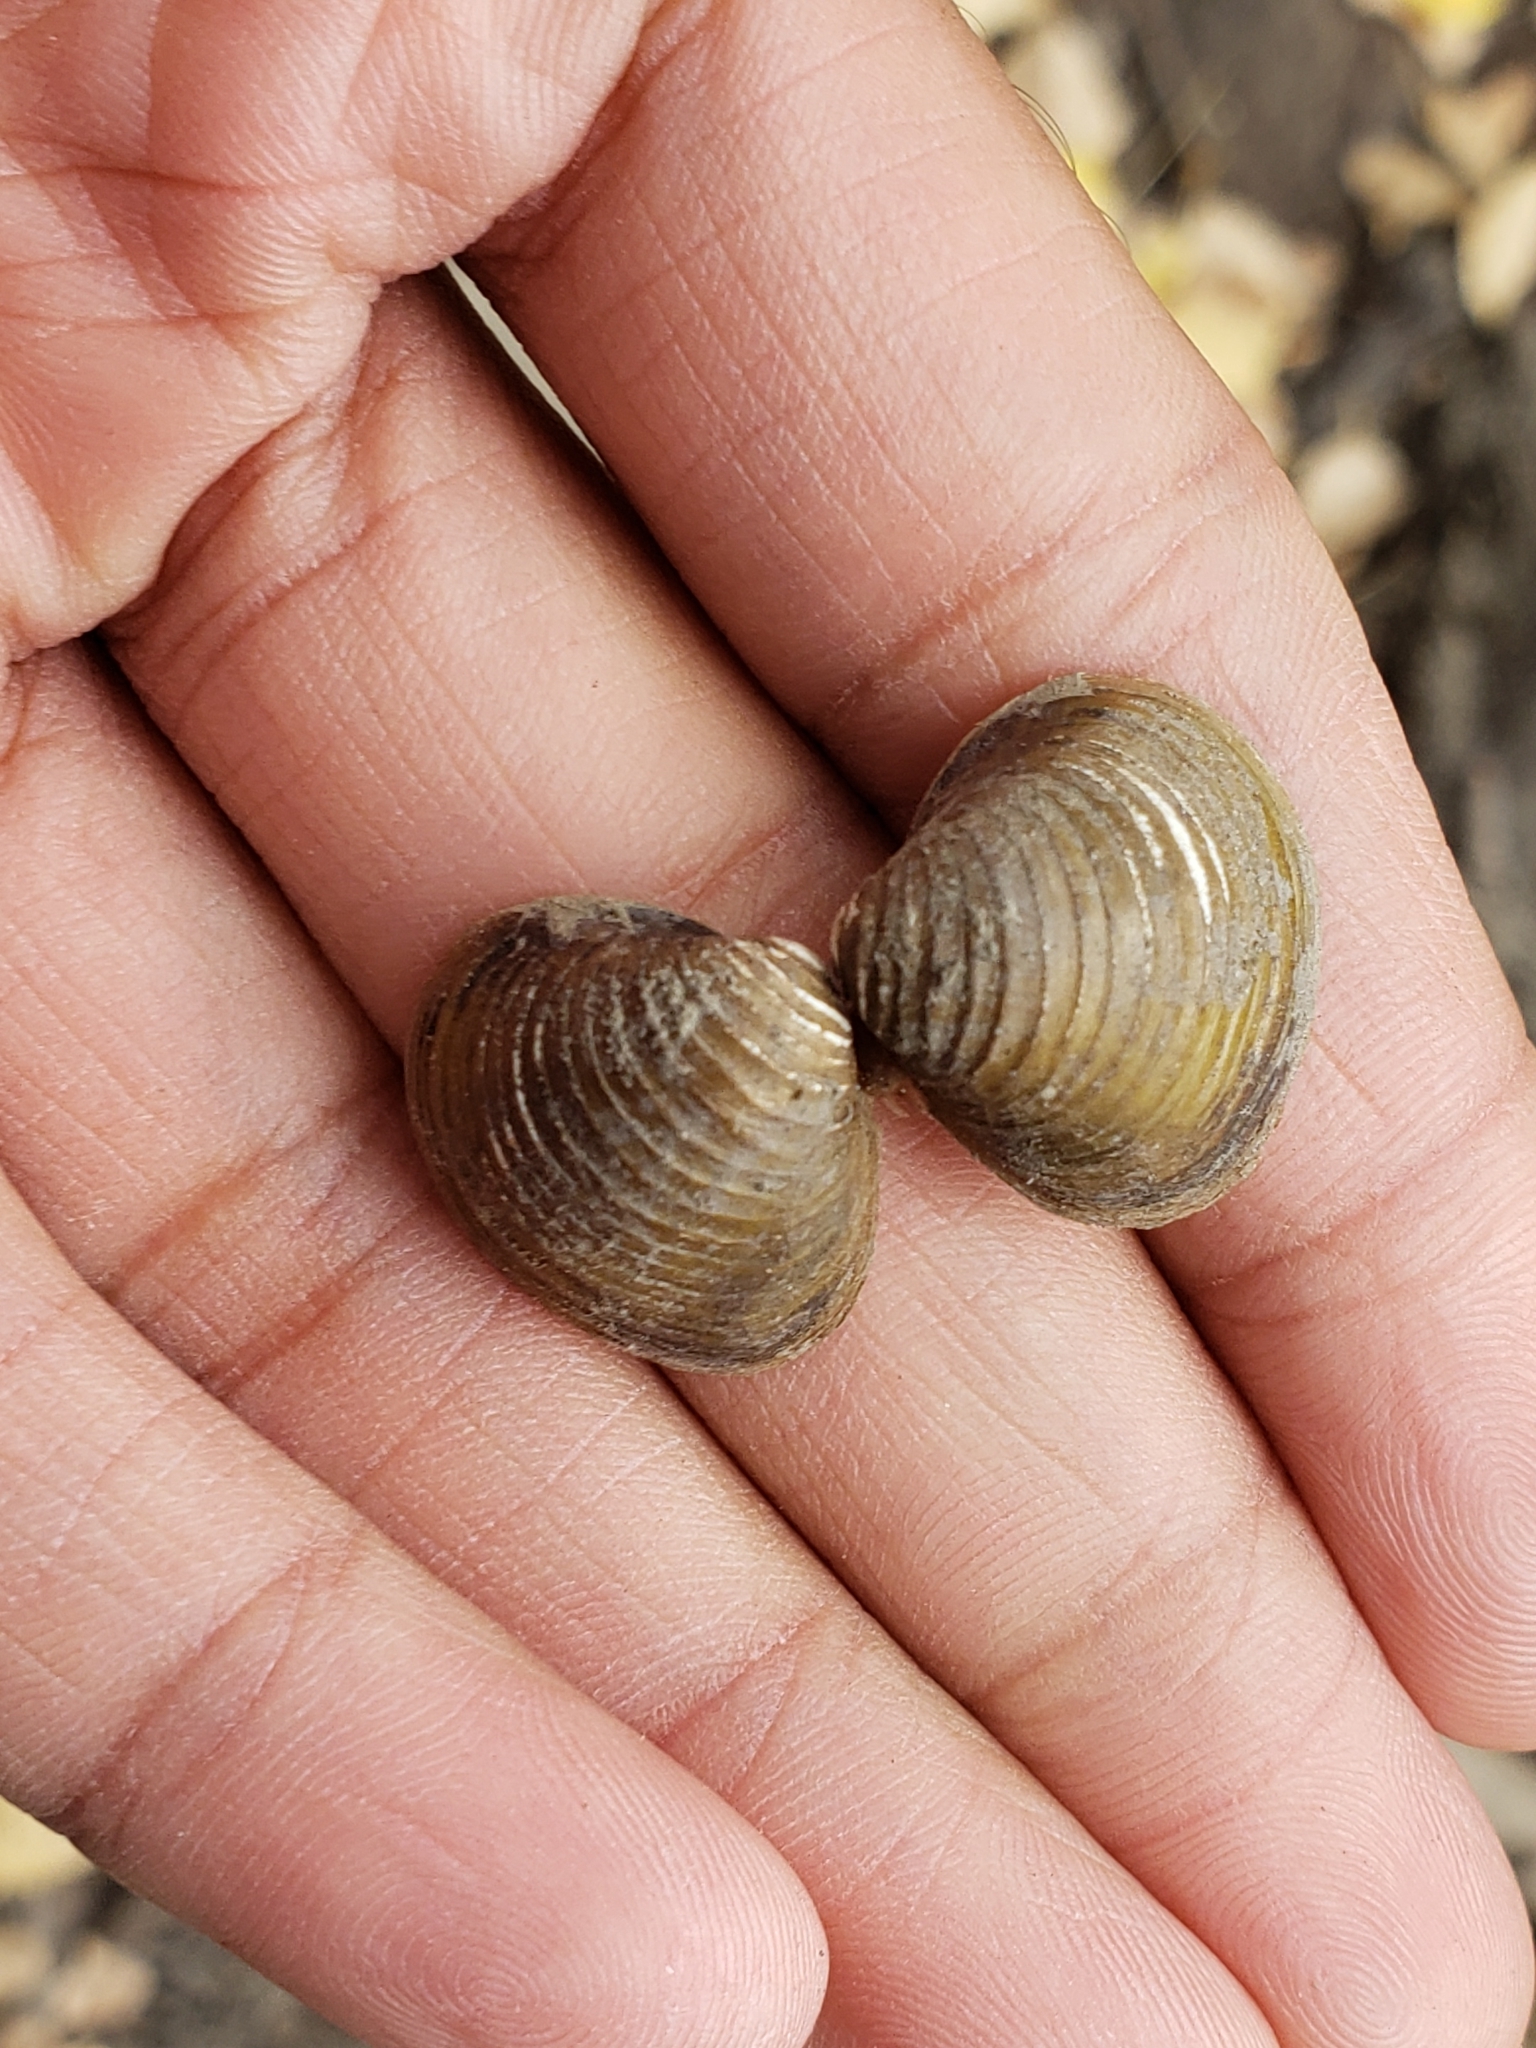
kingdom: Animalia
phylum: Mollusca
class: Bivalvia
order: Venerida
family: Cyrenidae
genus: Corbicula
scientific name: Corbicula fluminea
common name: Asian clam
